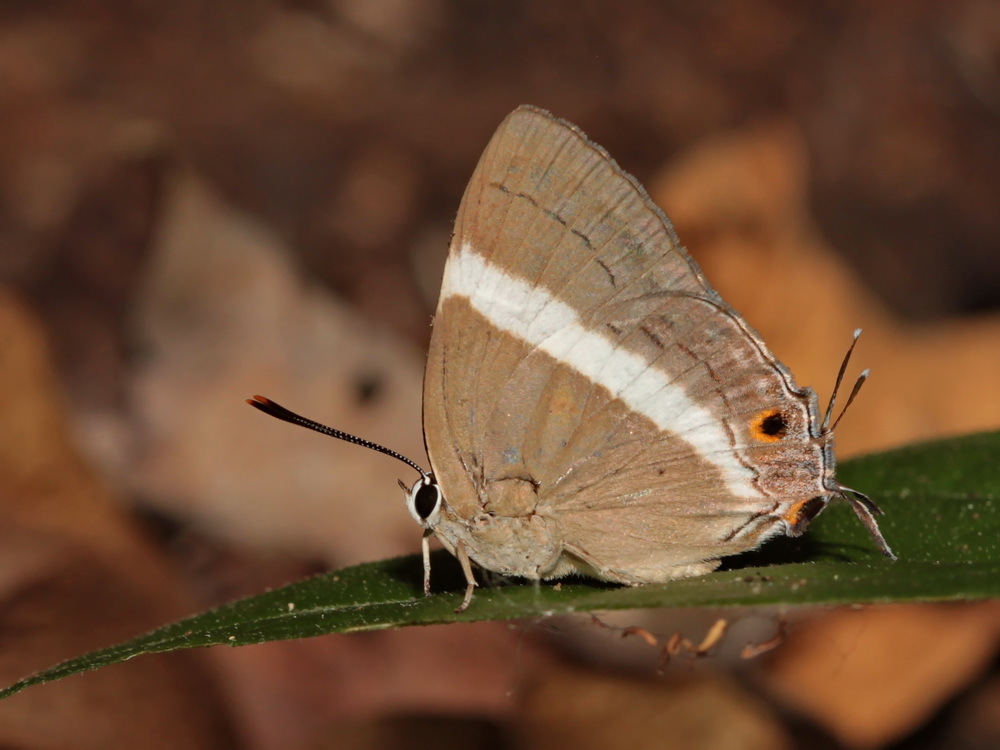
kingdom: Animalia
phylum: Arthropoda
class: Insecta
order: Lepidoptera
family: Lycaenidae
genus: Dacalana
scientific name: Dacalana
